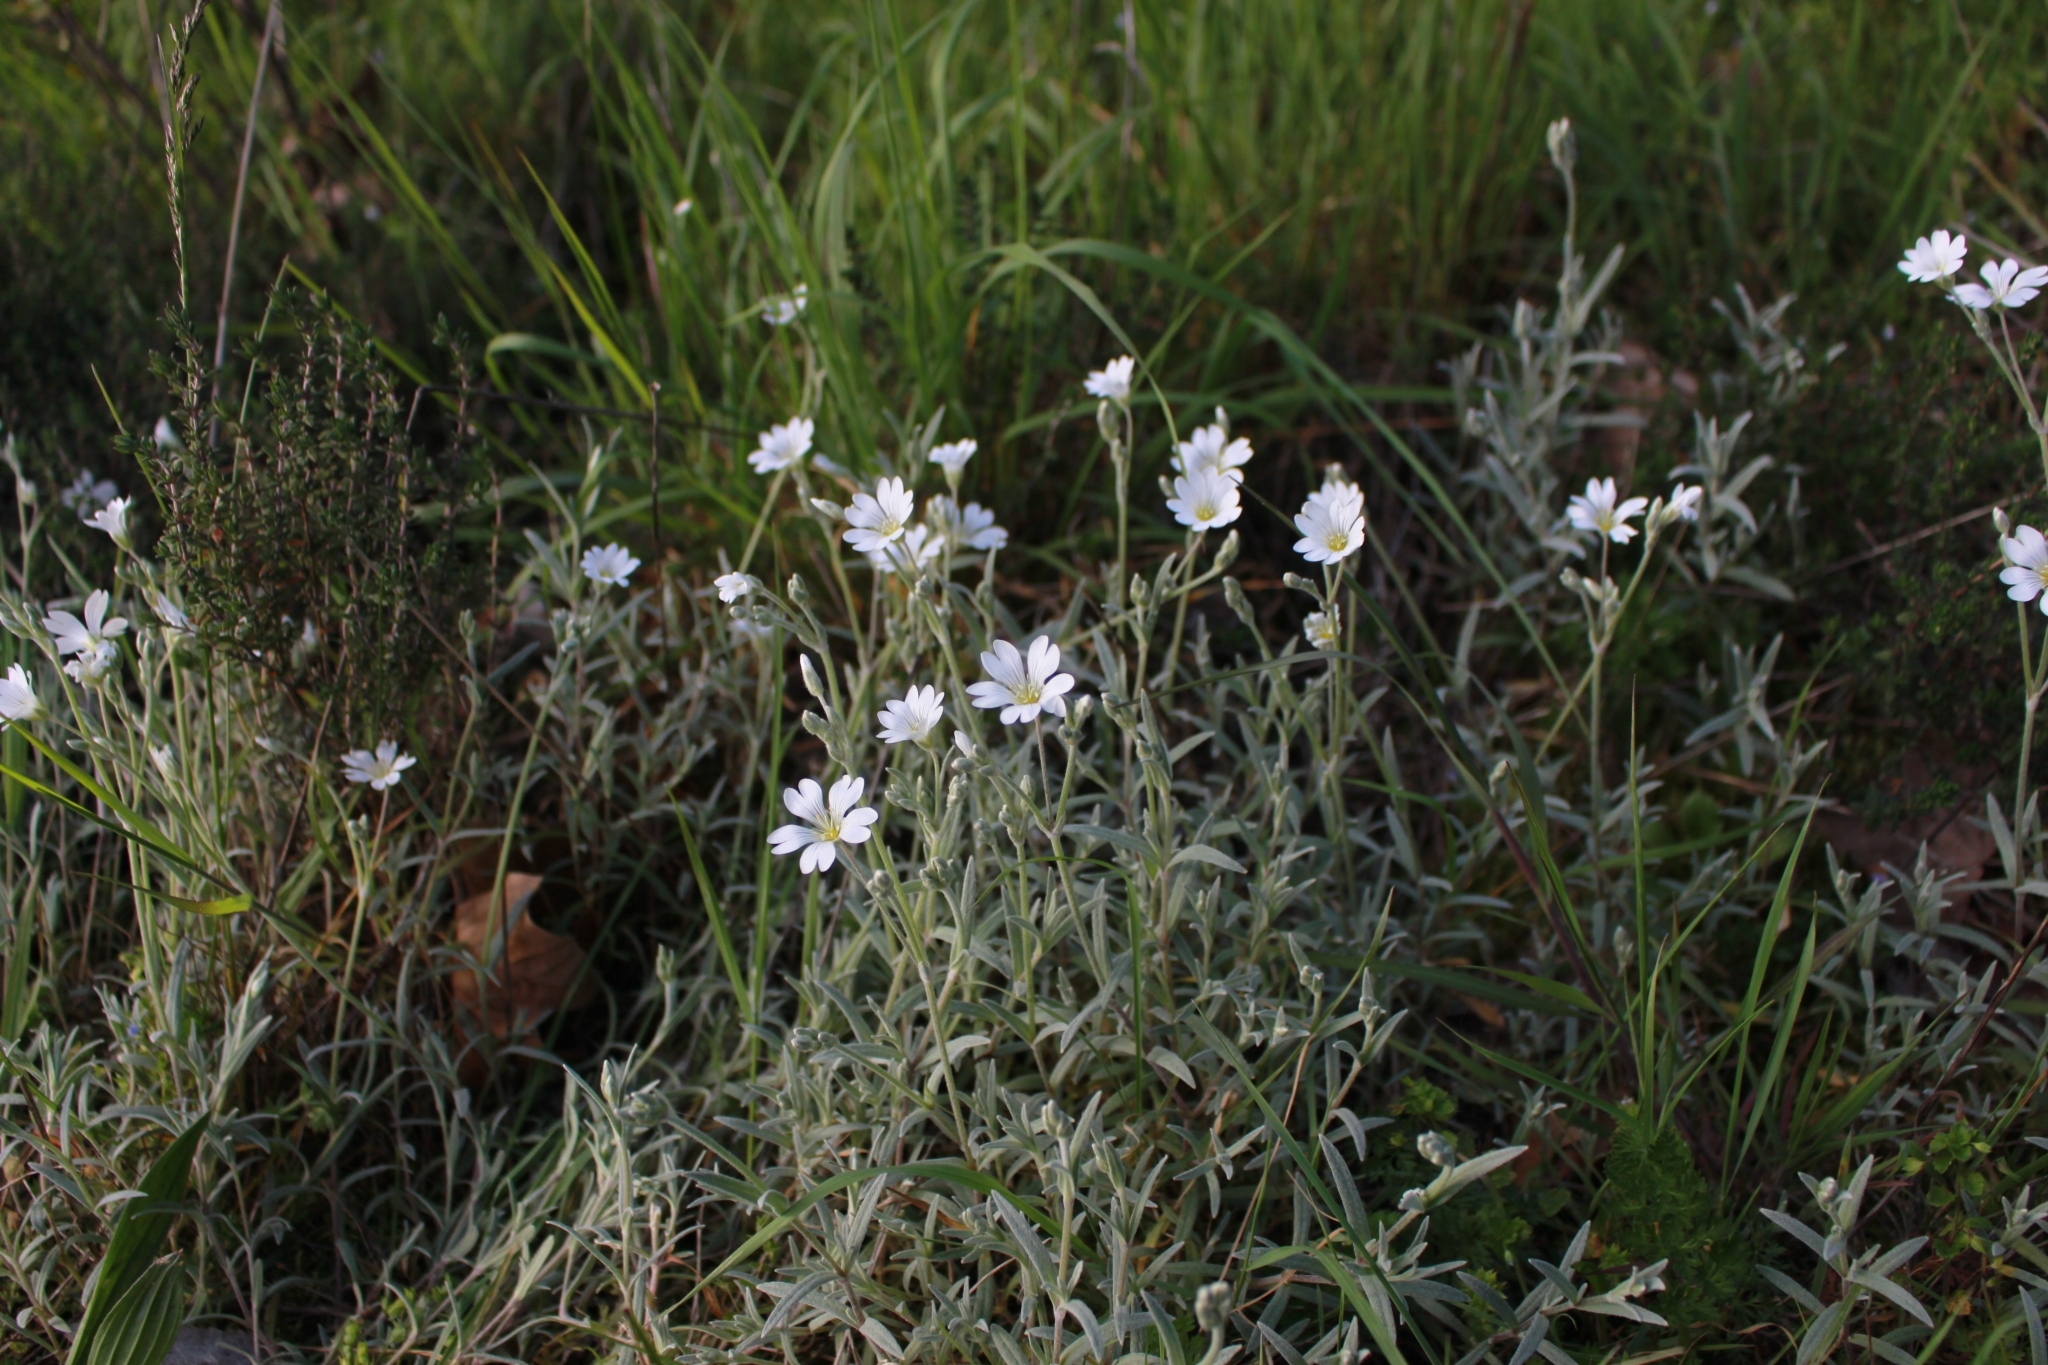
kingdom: Plantae
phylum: Tracheophyta
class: Magnoliopsida
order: Caryophyllales
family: Caryophyllaceae
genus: Cerastium
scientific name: Cerastium tomentosum
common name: Snow-in-summer
